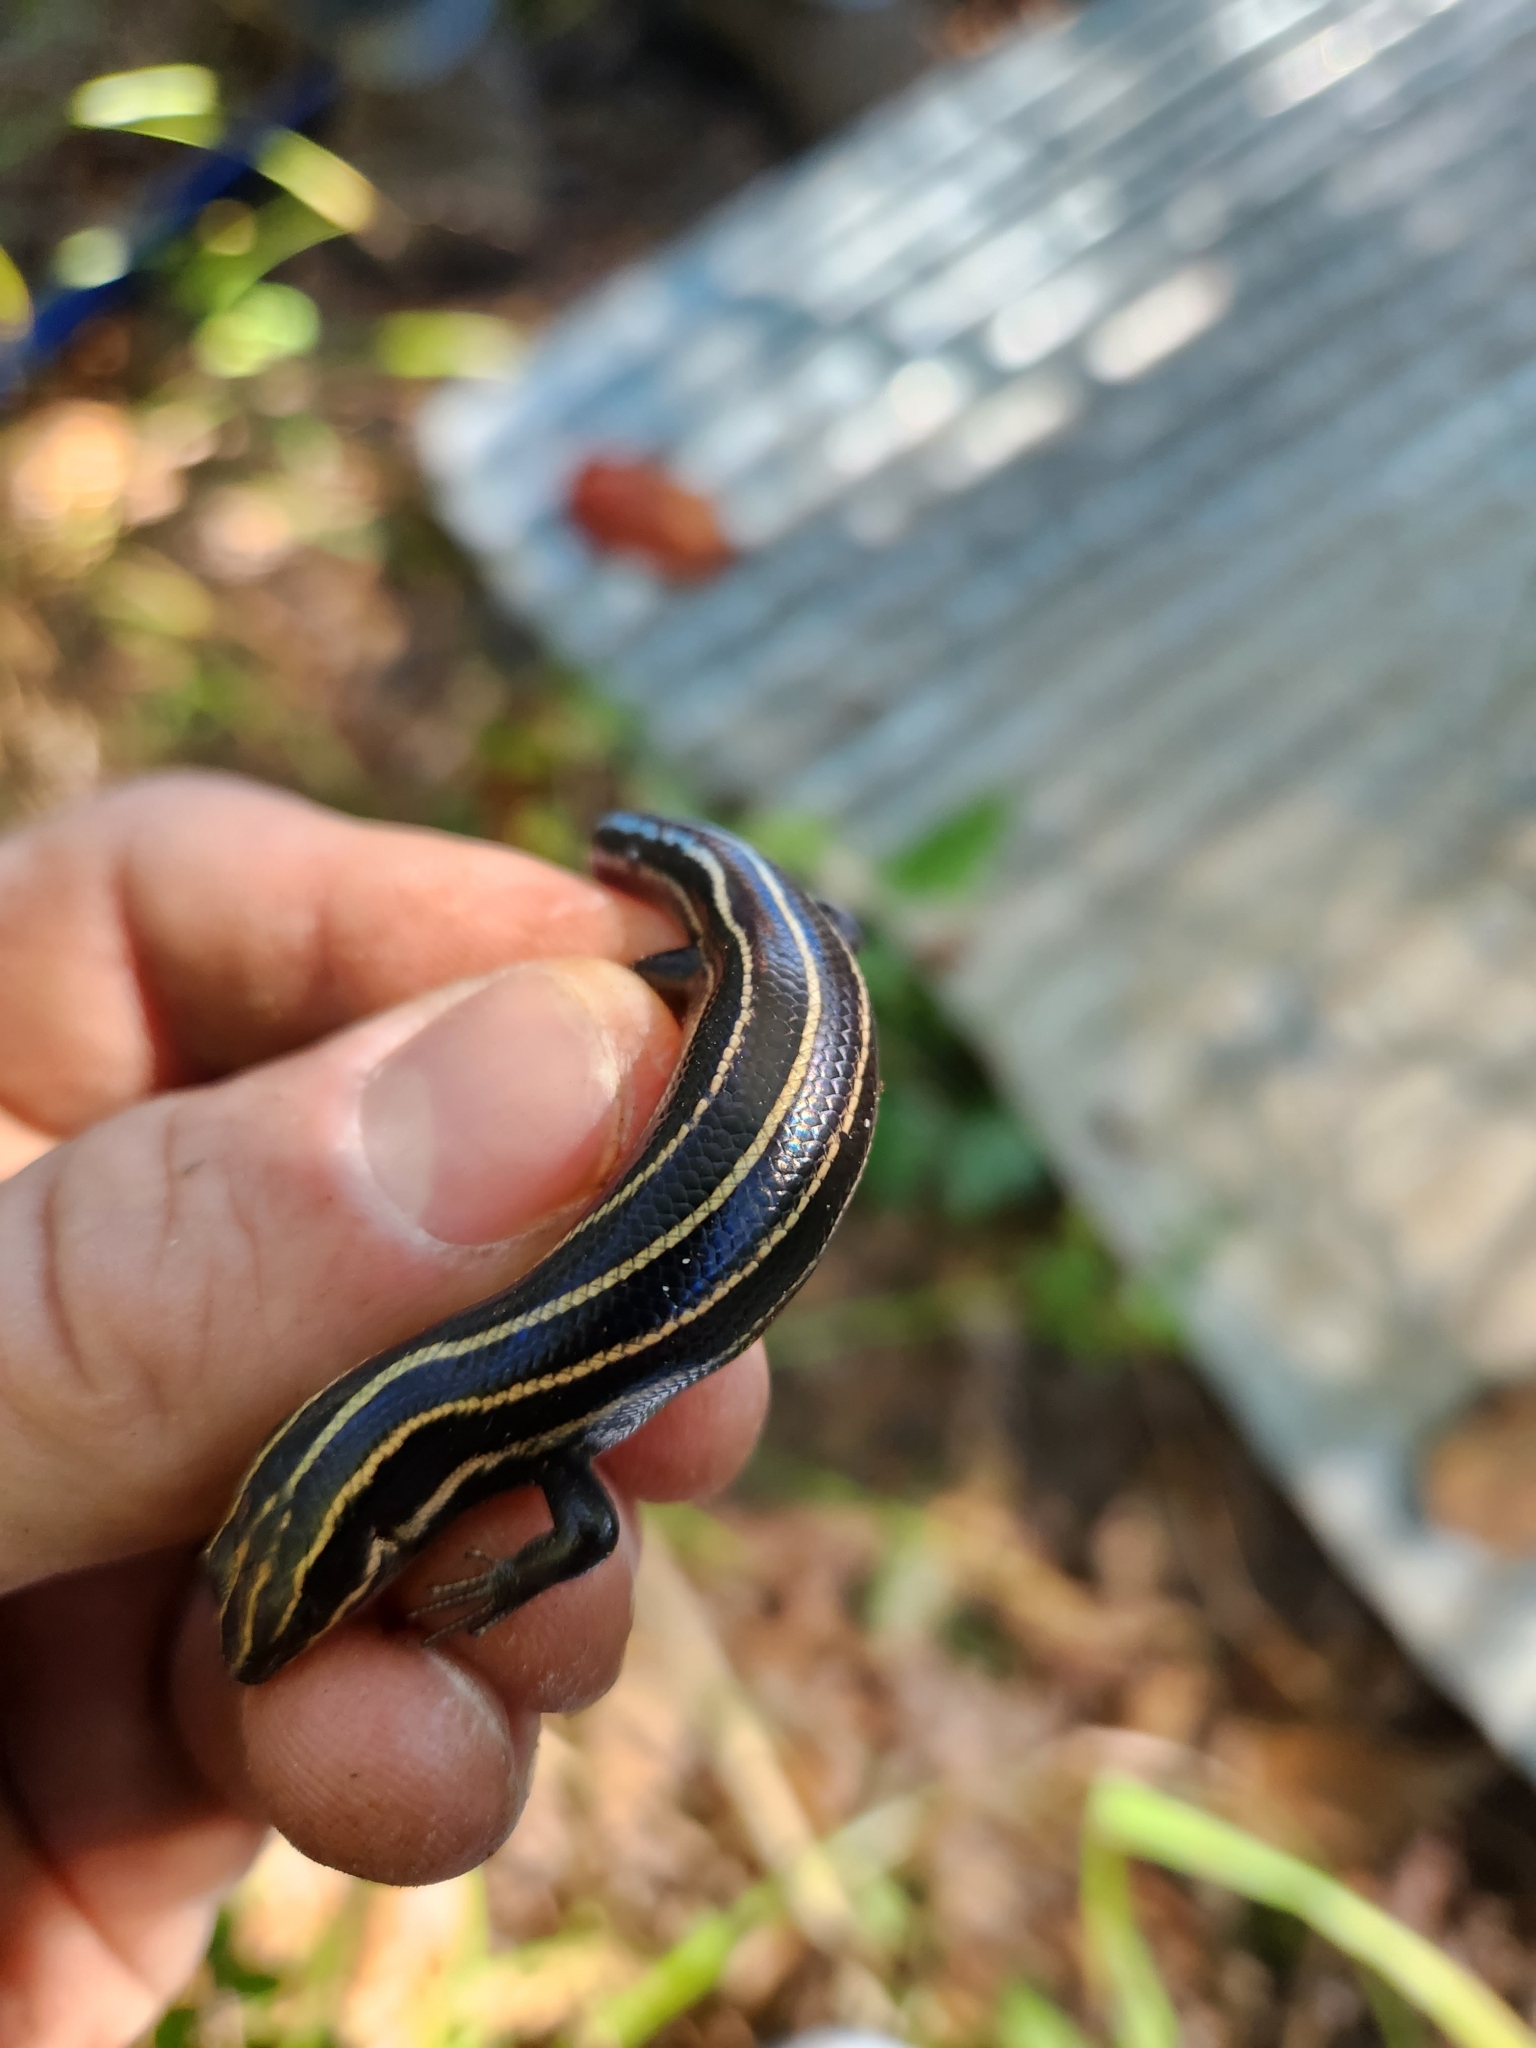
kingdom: Animalia
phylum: Chordata
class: Squamata
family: Scincidae
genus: Plestiodon
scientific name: Plestiodon fasciatus
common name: Five-lined skink
